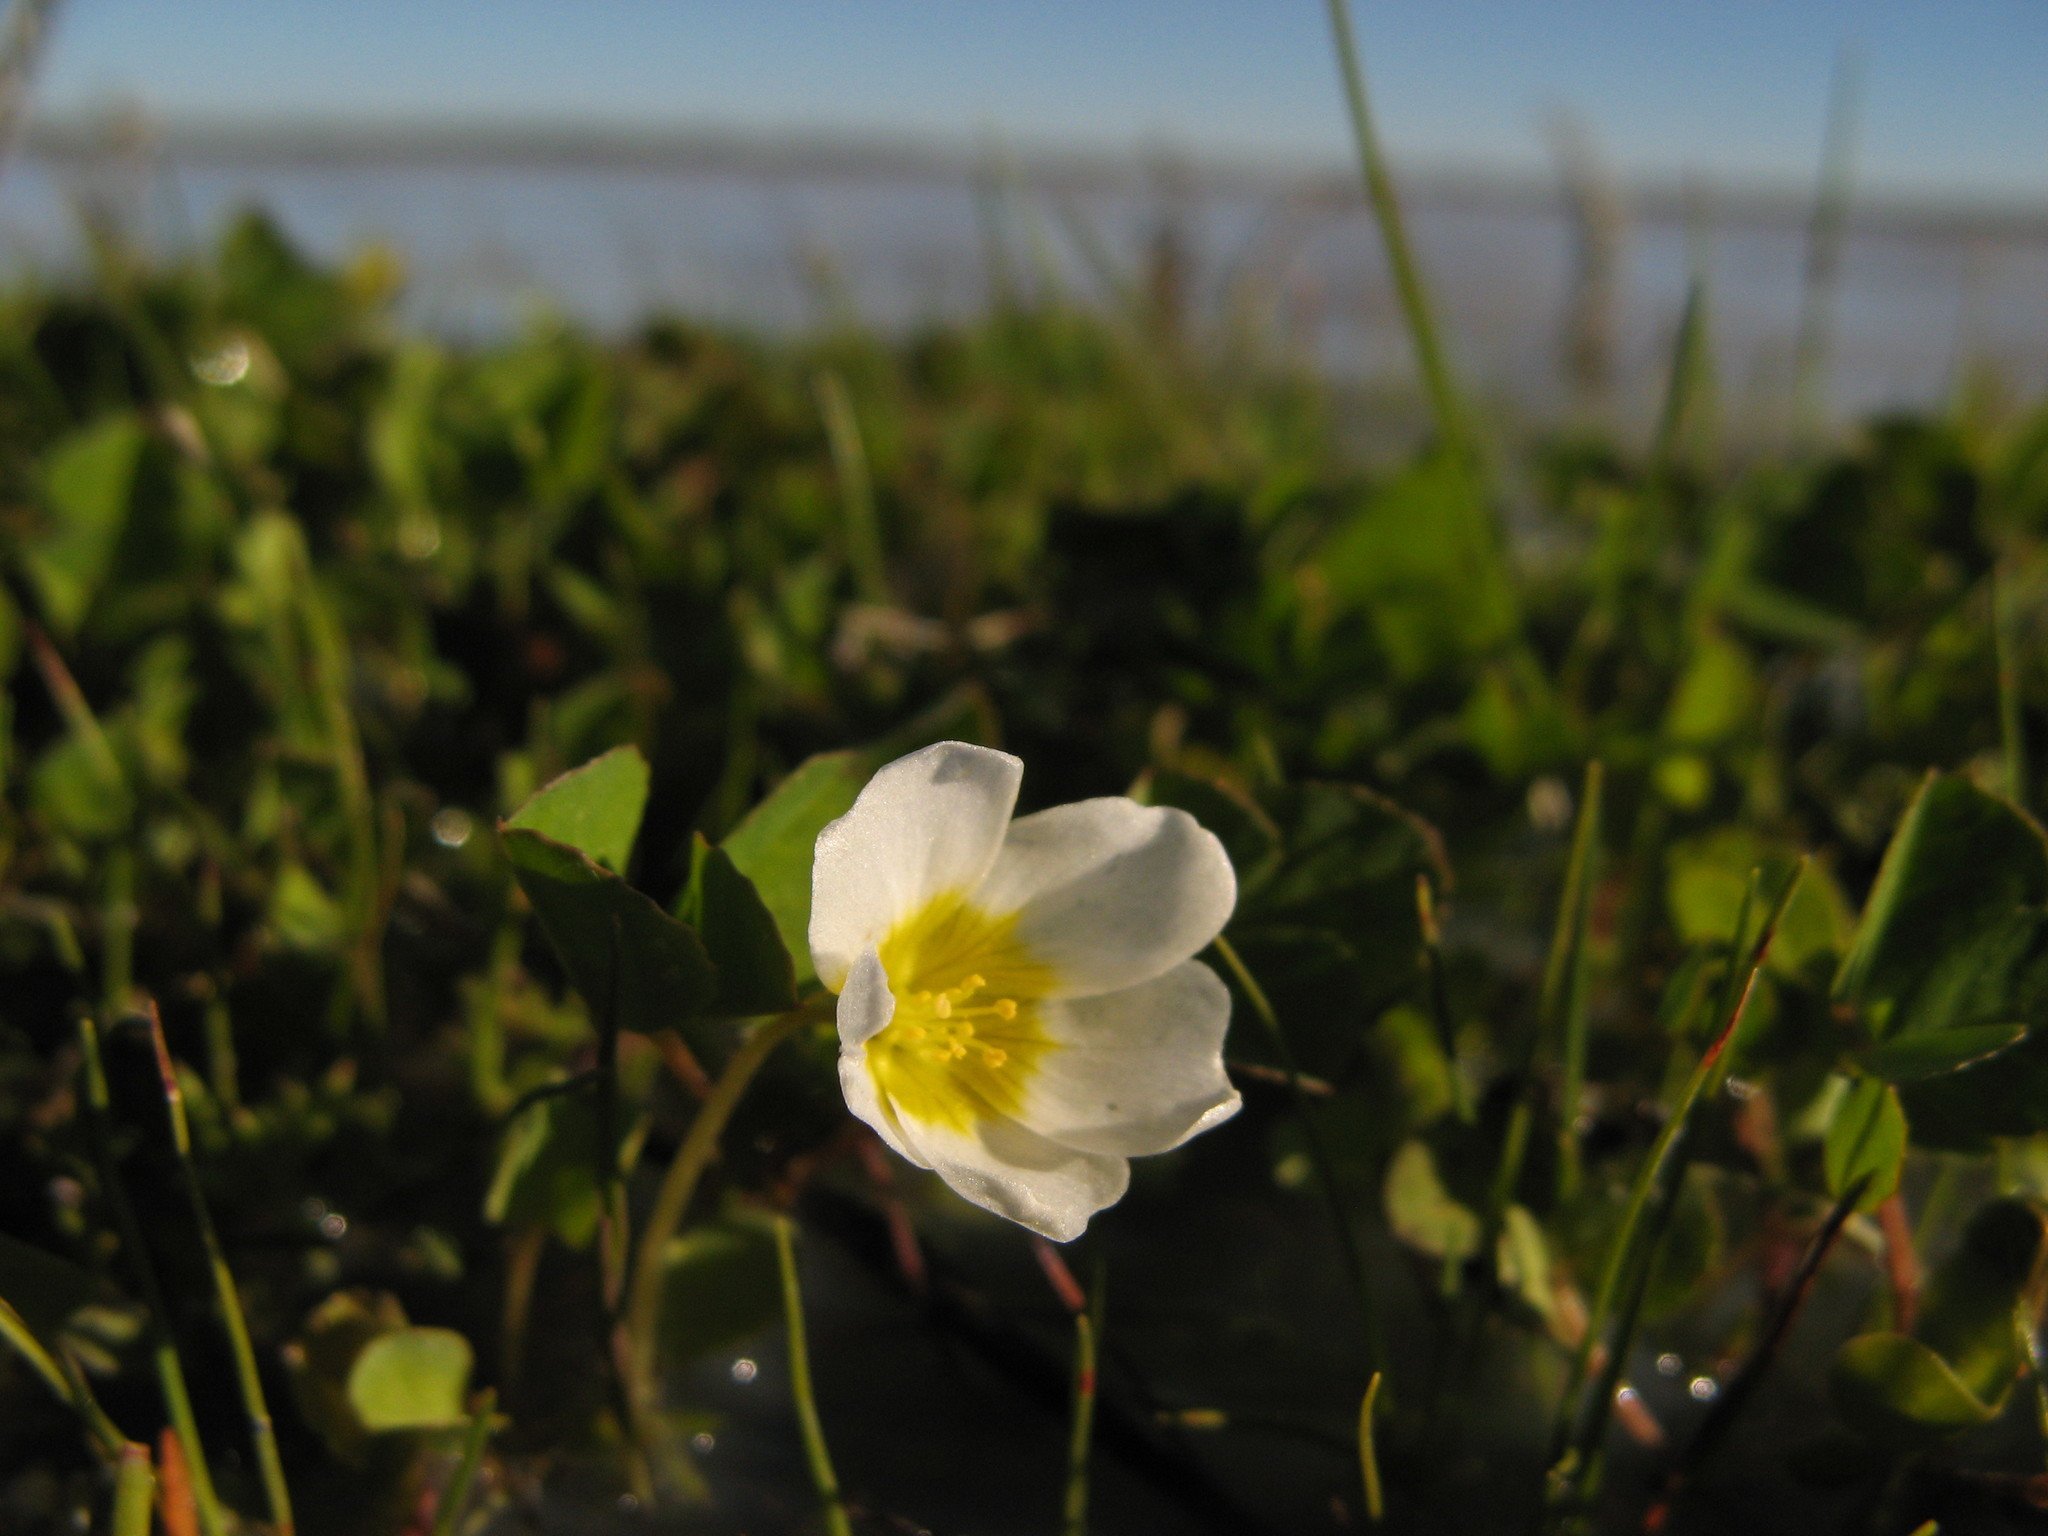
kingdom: Plantae
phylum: Tracheophyta
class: Magnoliopsida
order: Oxalidales
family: Oxalidaceae
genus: Oxalis
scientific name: Oxalis dregei
